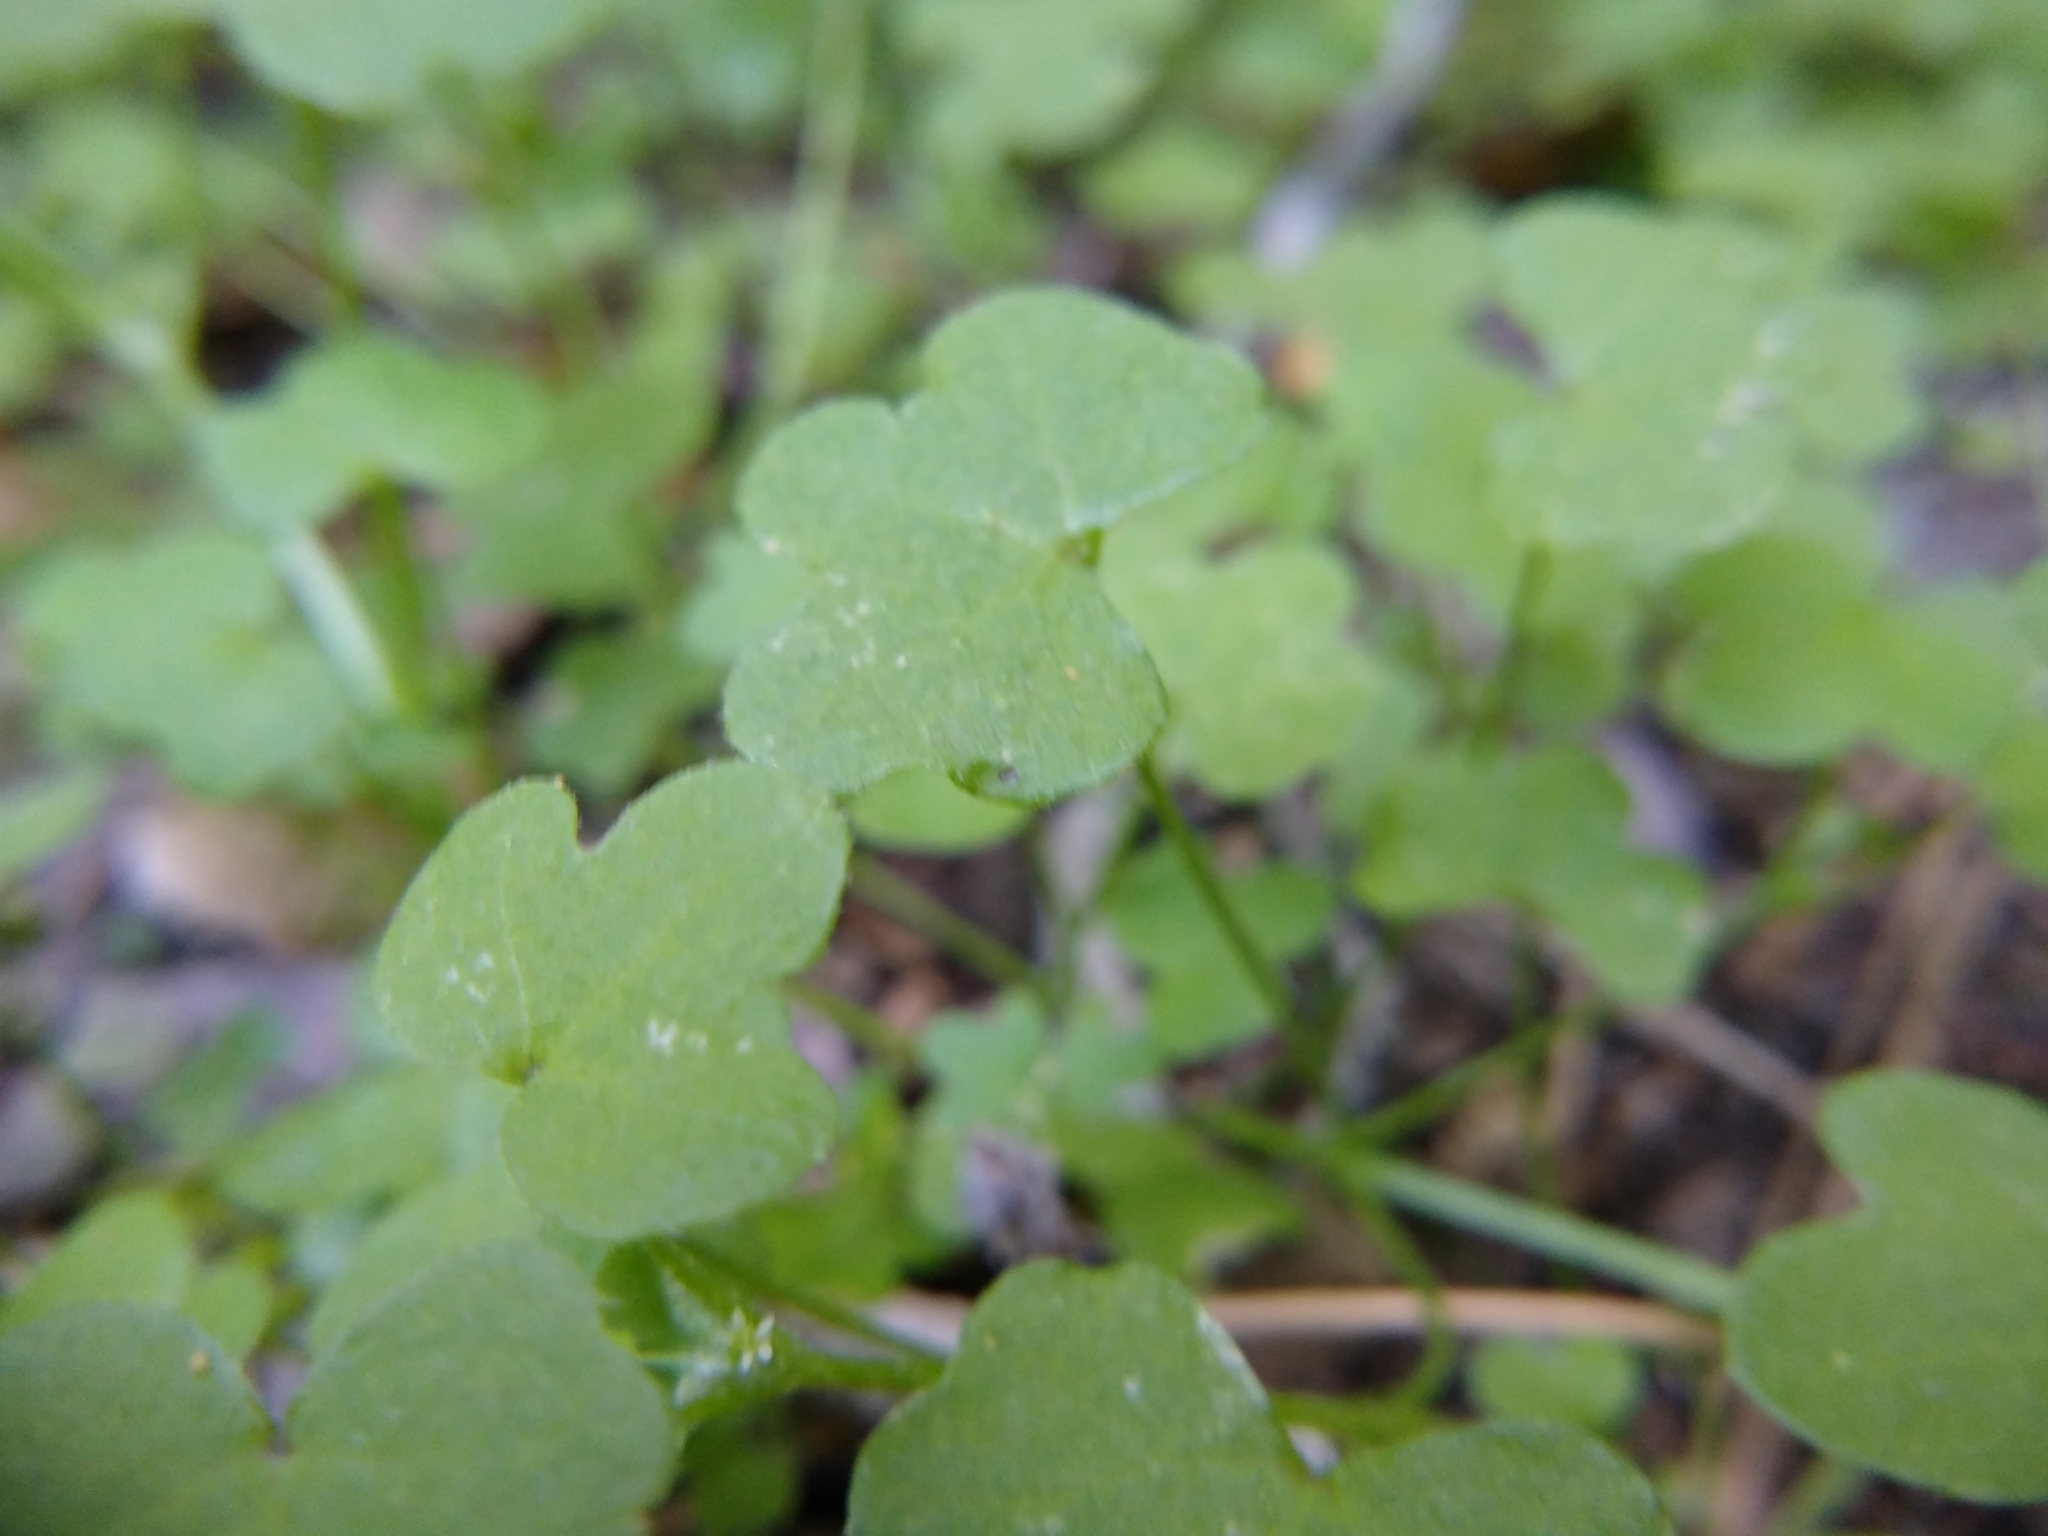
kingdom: Plantae
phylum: Tracheophyta
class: Magnoliopsida
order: Apiales
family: Apiaceae
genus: Bowlesia
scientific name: Bowlesia incana
